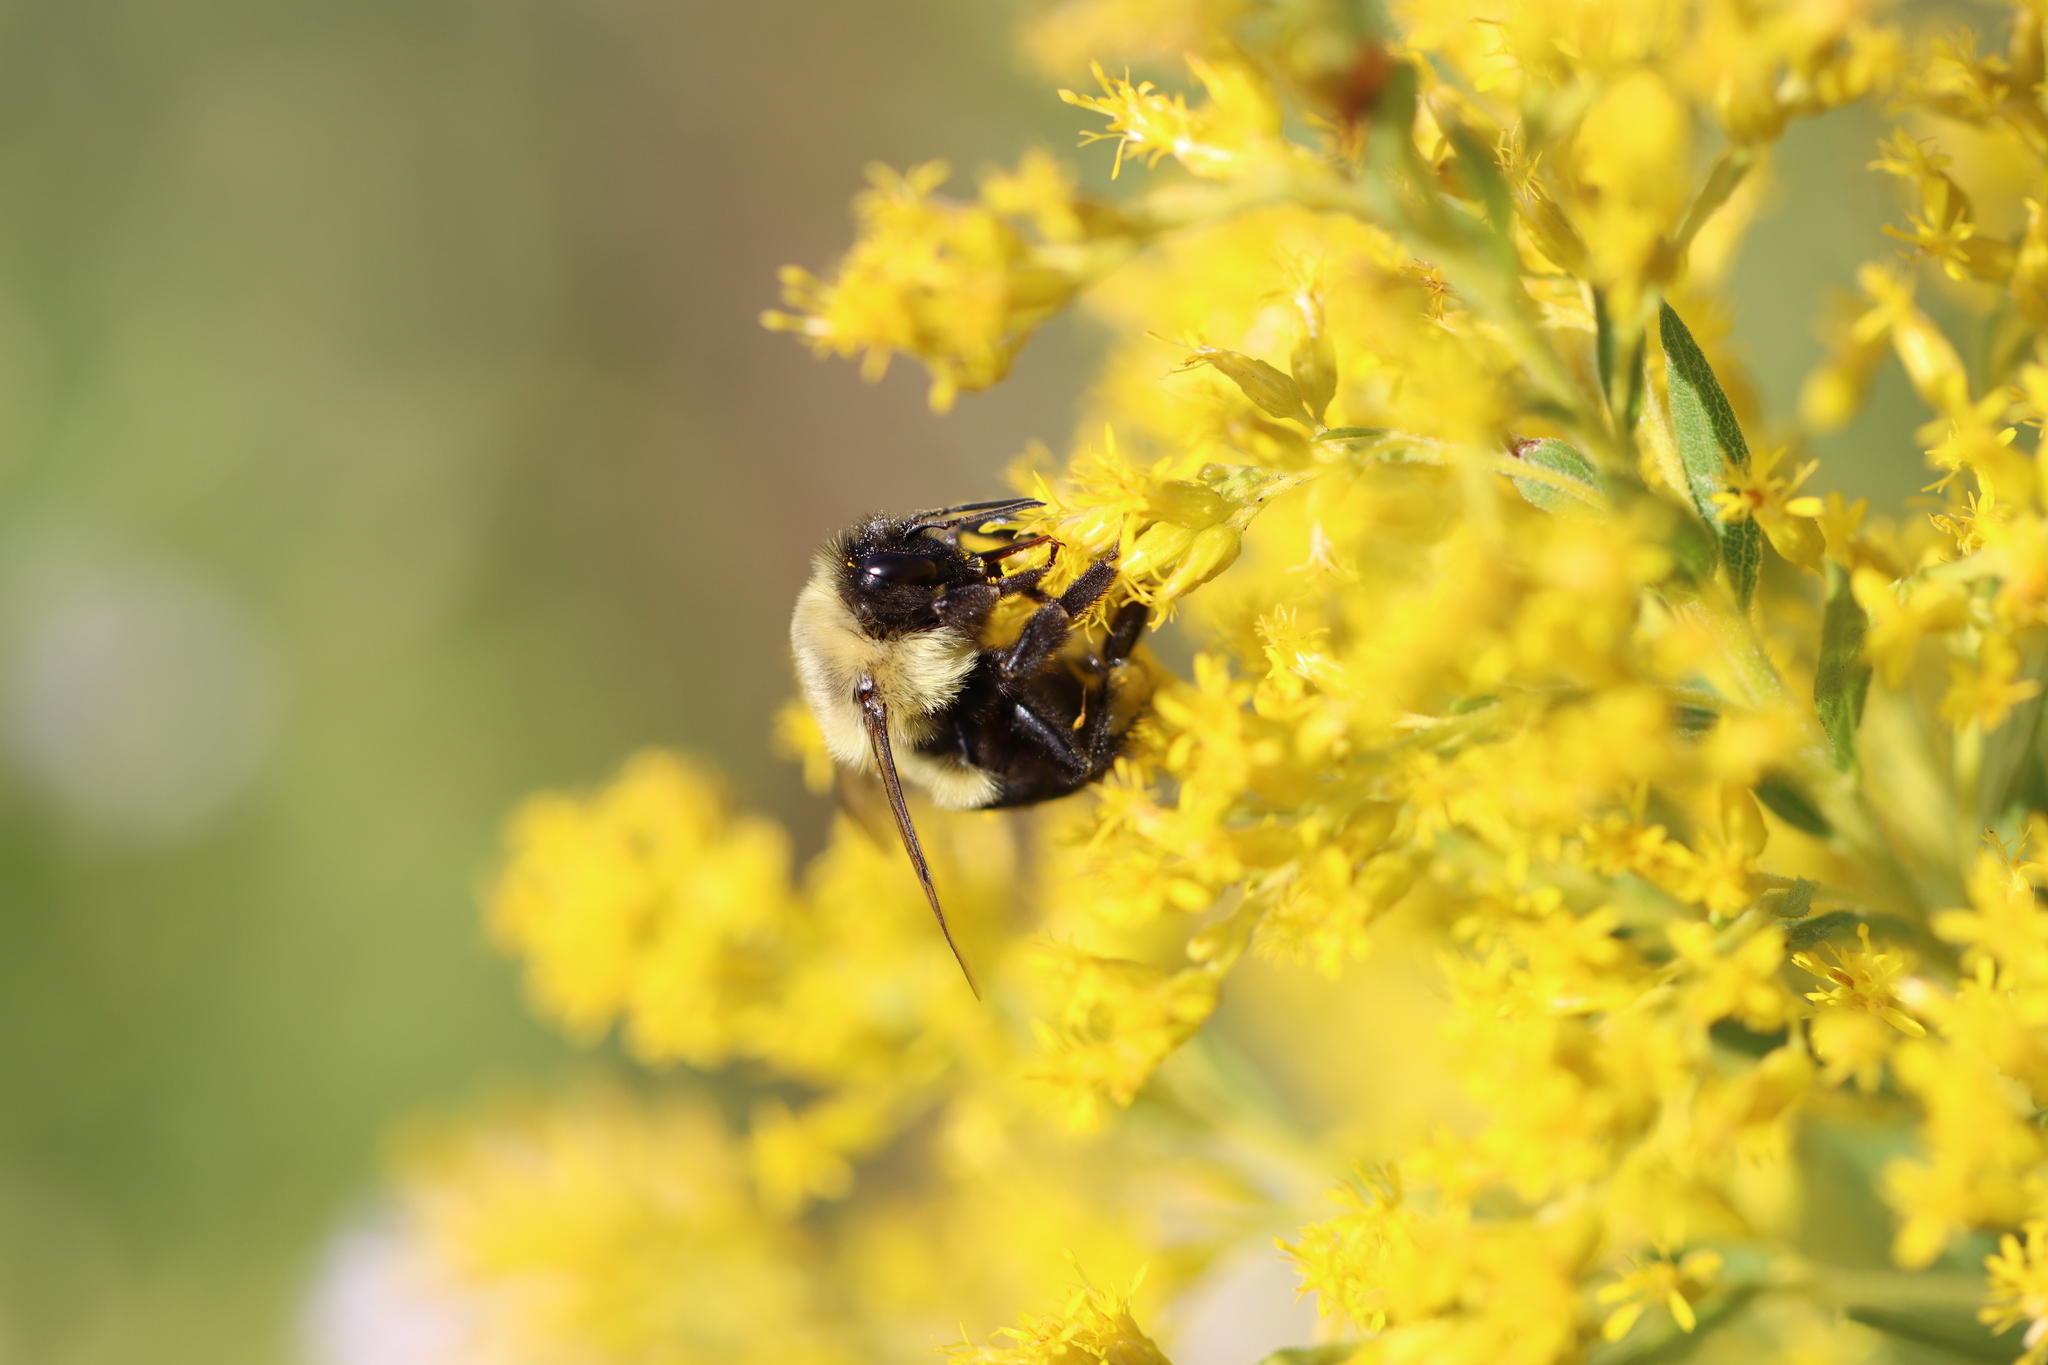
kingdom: Animalia
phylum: Arthropoda
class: Insecta
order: Hymenoptera
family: Apidae
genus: Bombus
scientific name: Bombus impatiens
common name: Common eastern bumble bee
